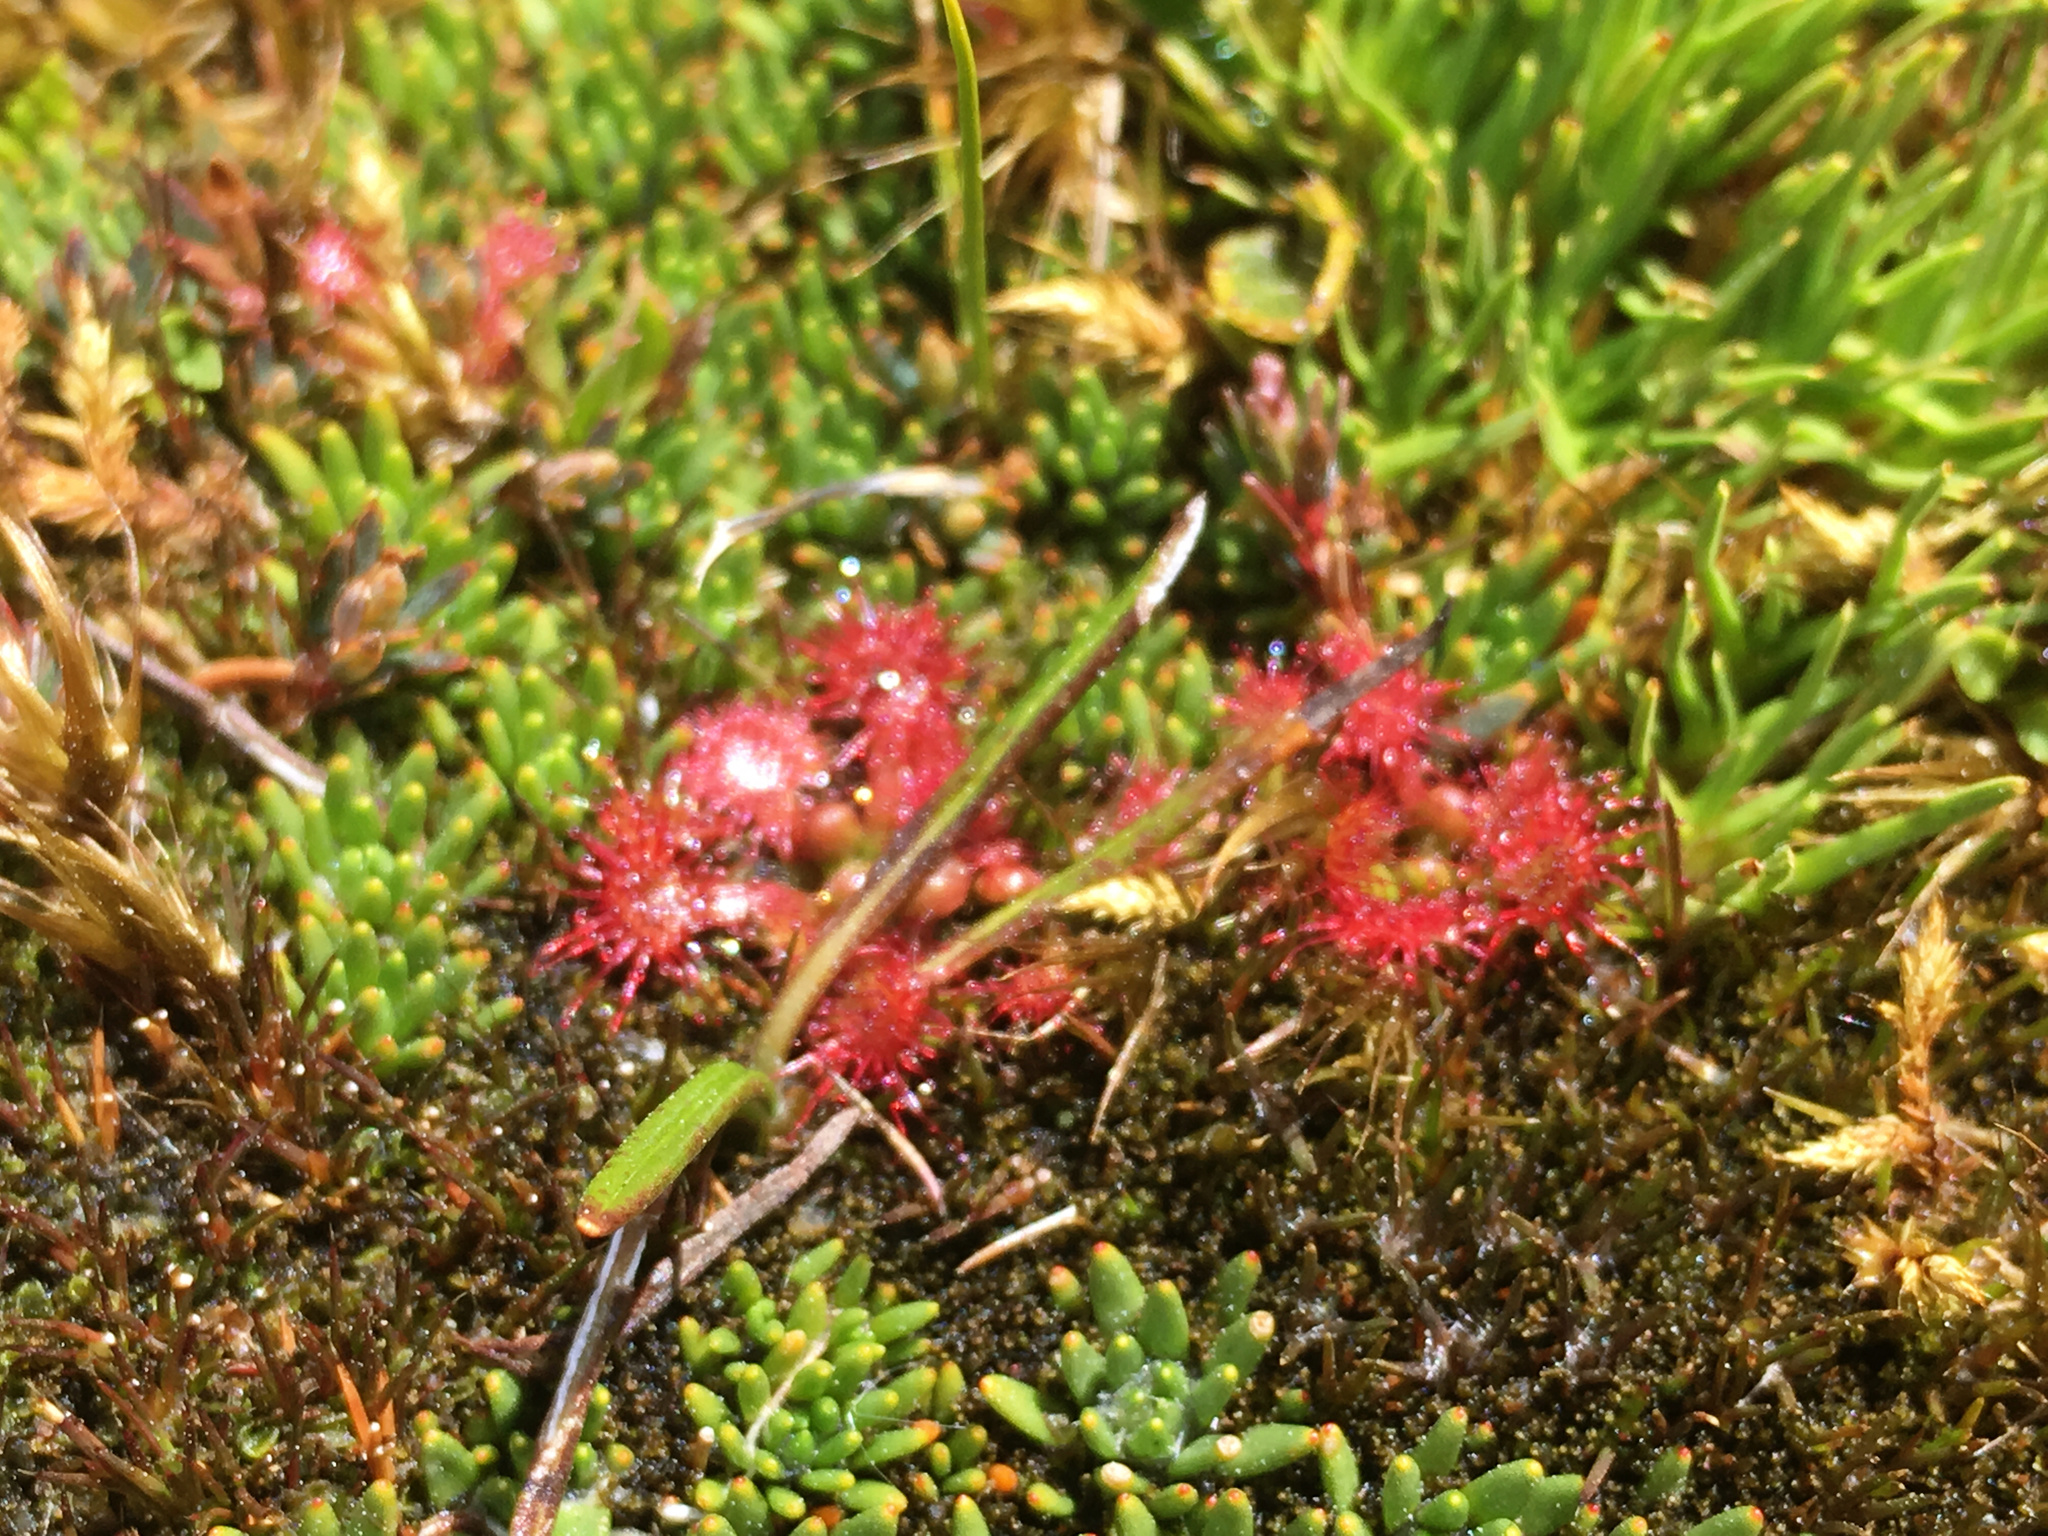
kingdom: Plantae
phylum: Tracheophyta
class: Magnoliopsida
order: Caryophyllales
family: Droseraceae
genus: Drosera
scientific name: Drosera spatulata
